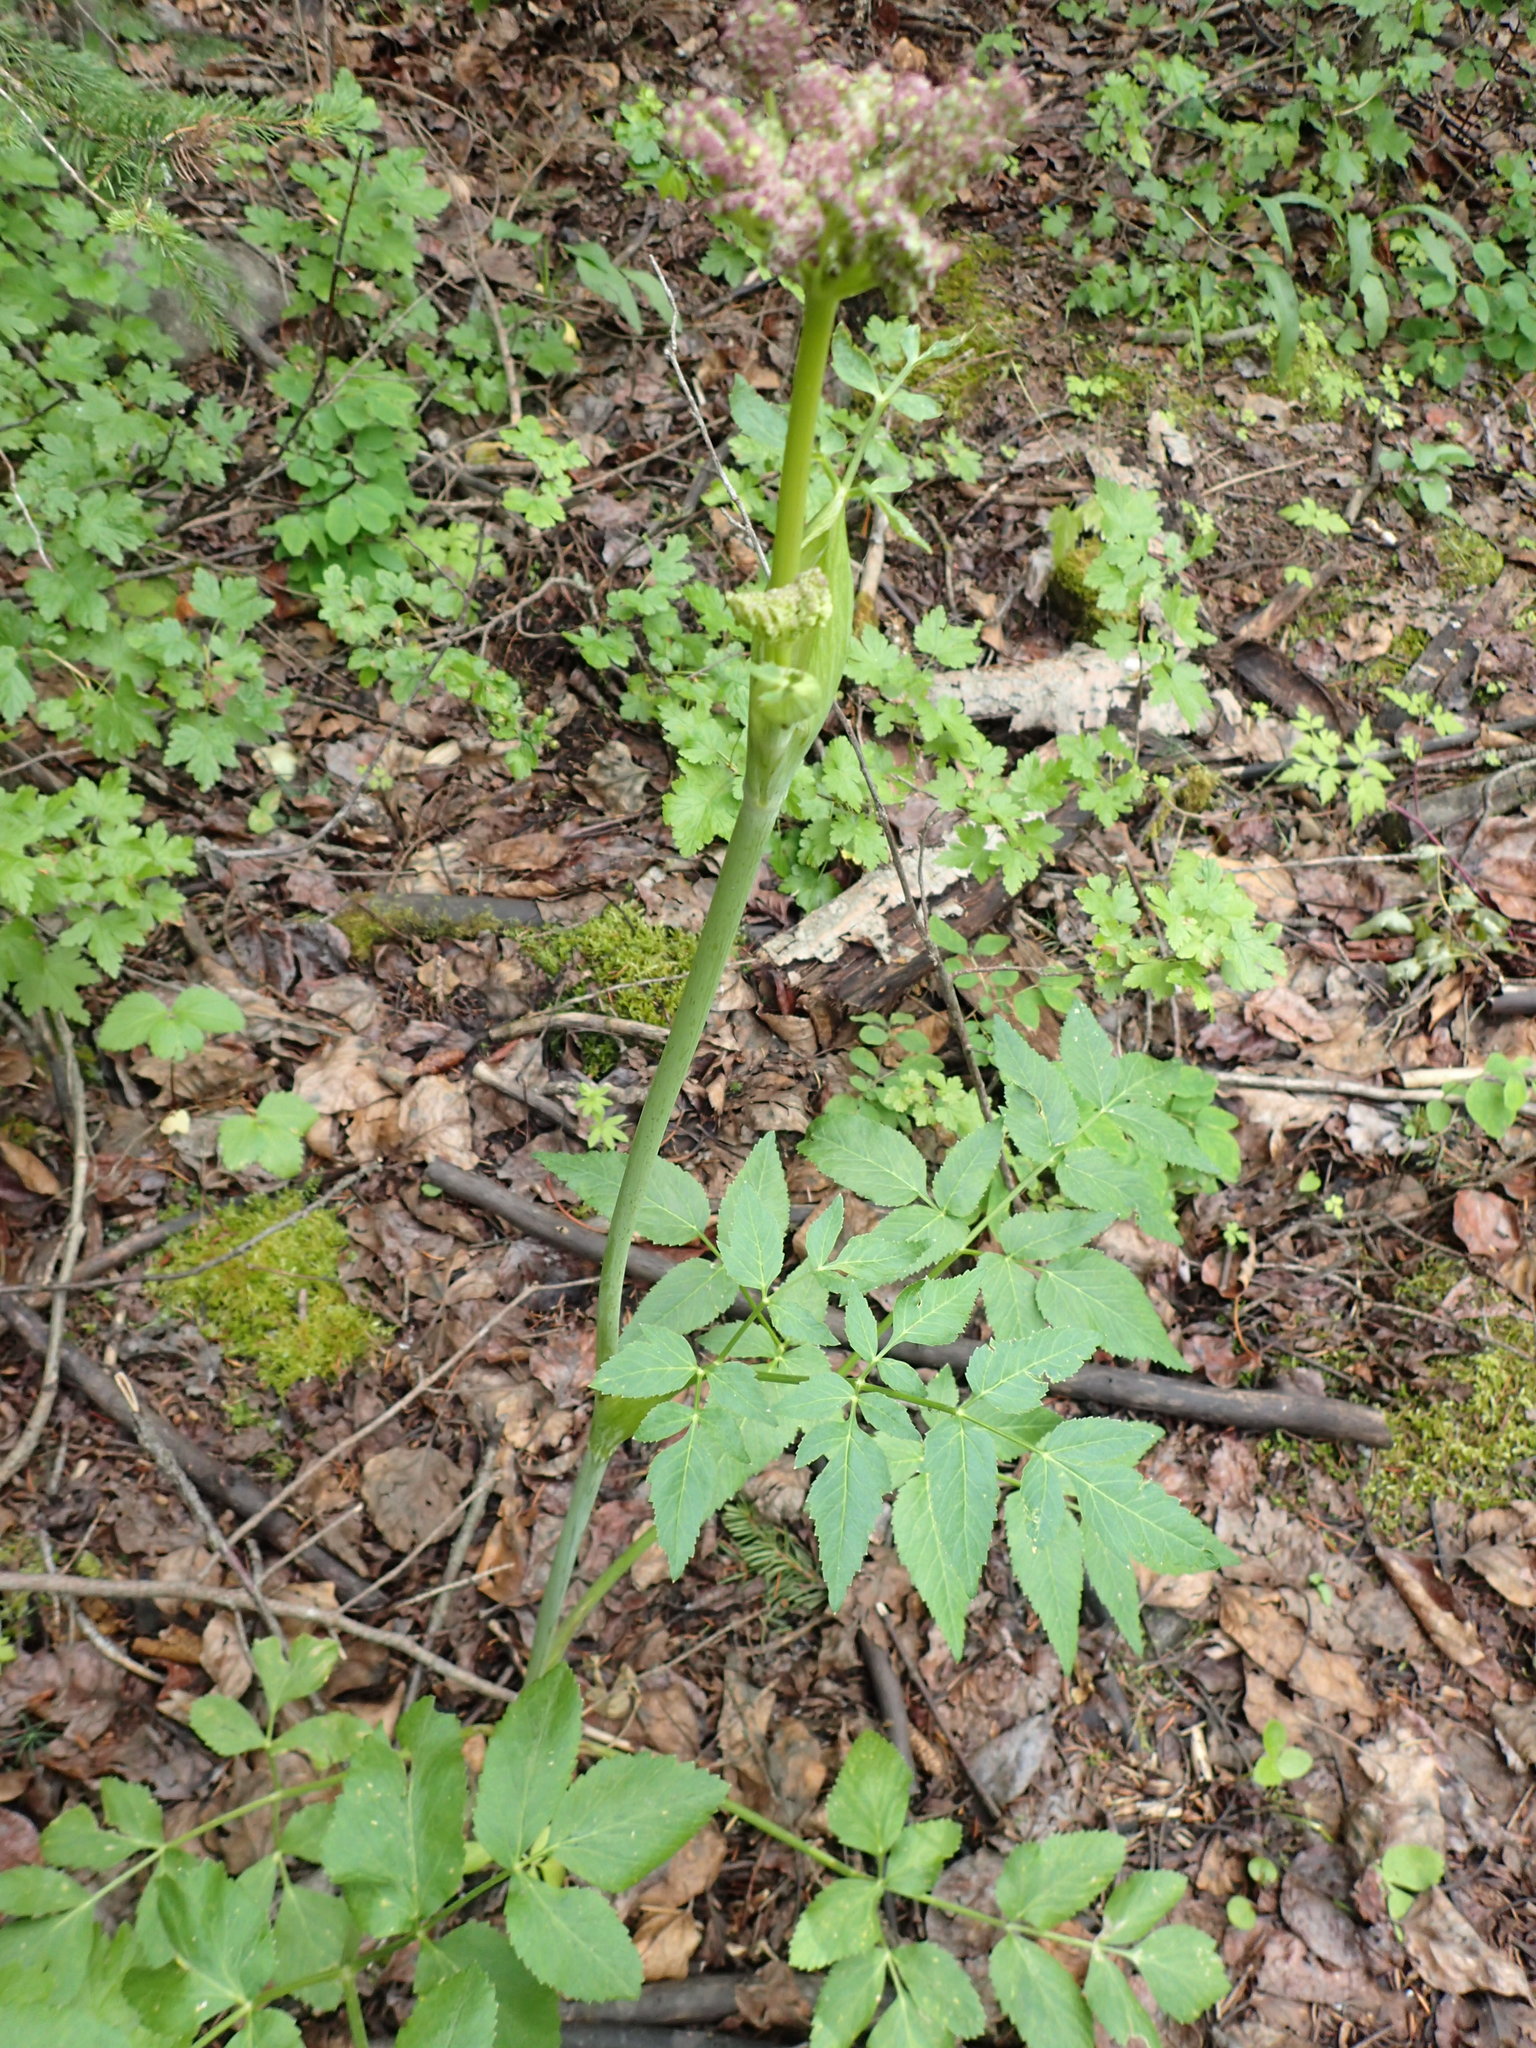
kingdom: Plantae
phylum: Tracheophyta
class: Magnoliopsida
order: Apiales
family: Apiaceae
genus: Angelica
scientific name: Angelica arguta
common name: Lyall's angelica
